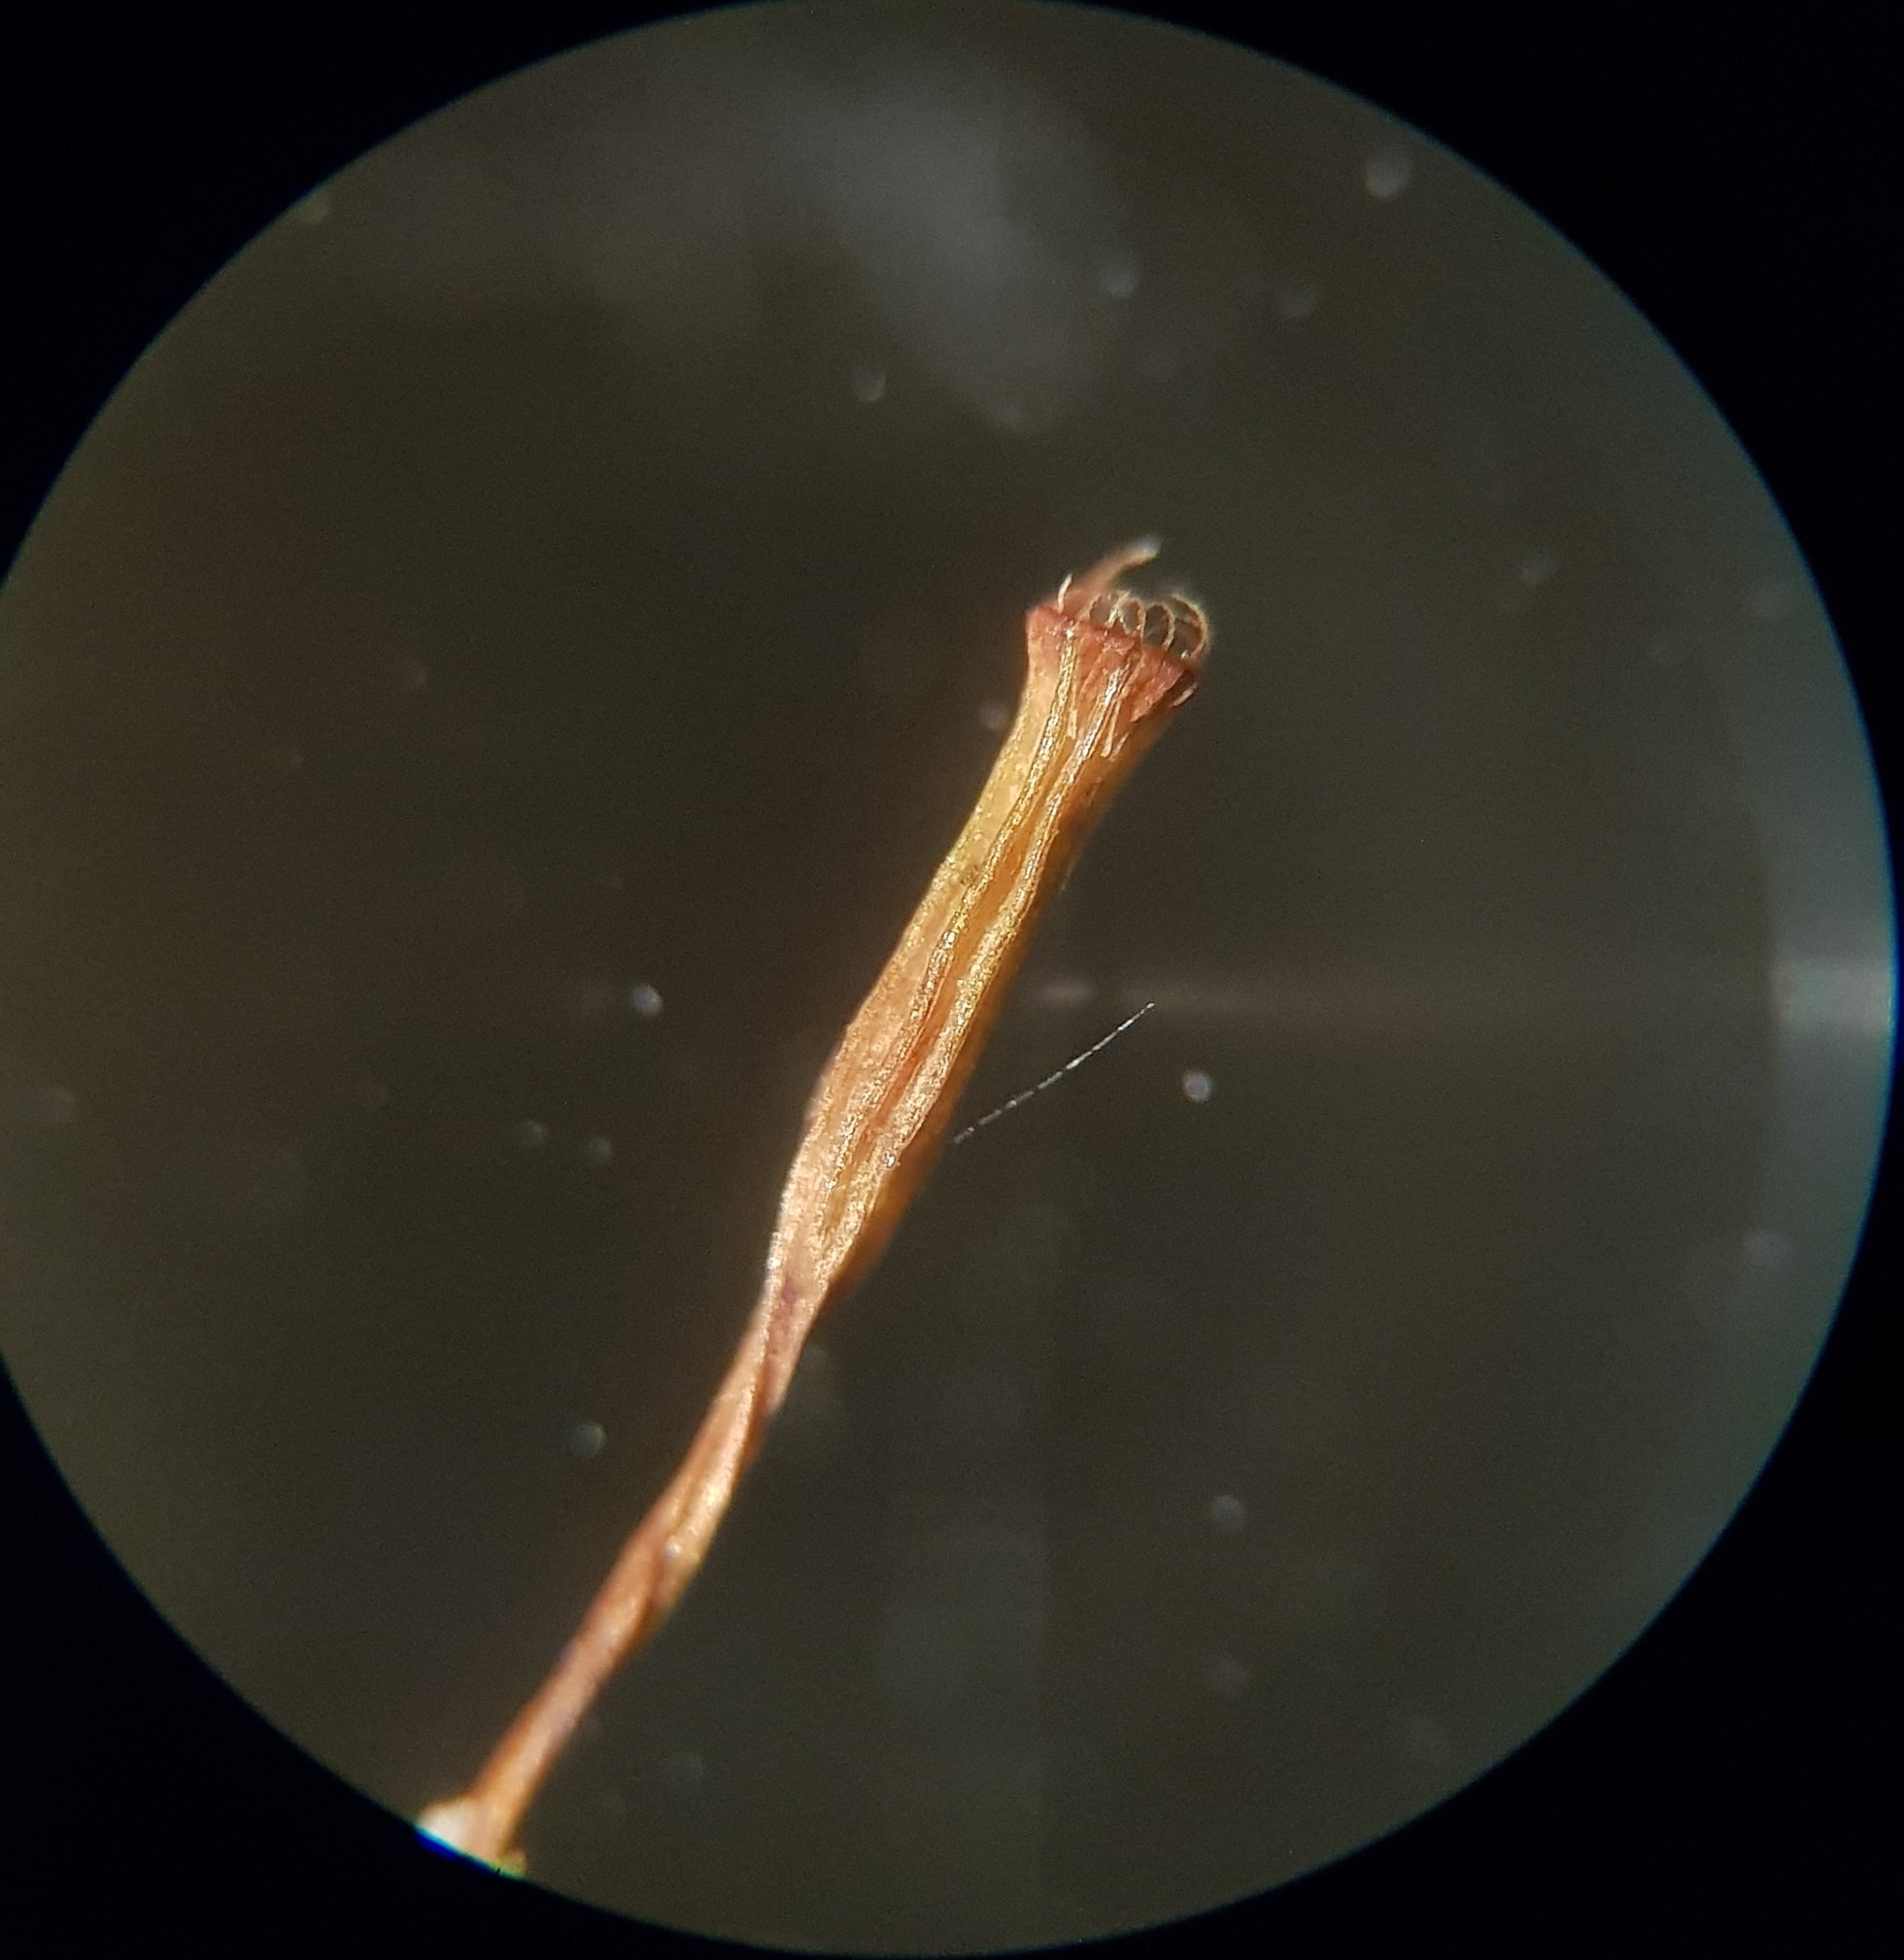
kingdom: Plantae
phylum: Bryophyta
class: Bryopsida
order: Orthotrichales
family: Orthotrichaceae
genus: Orthotrichum
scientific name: Orthotrichum pulchellum
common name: Elegant bristle-moss
